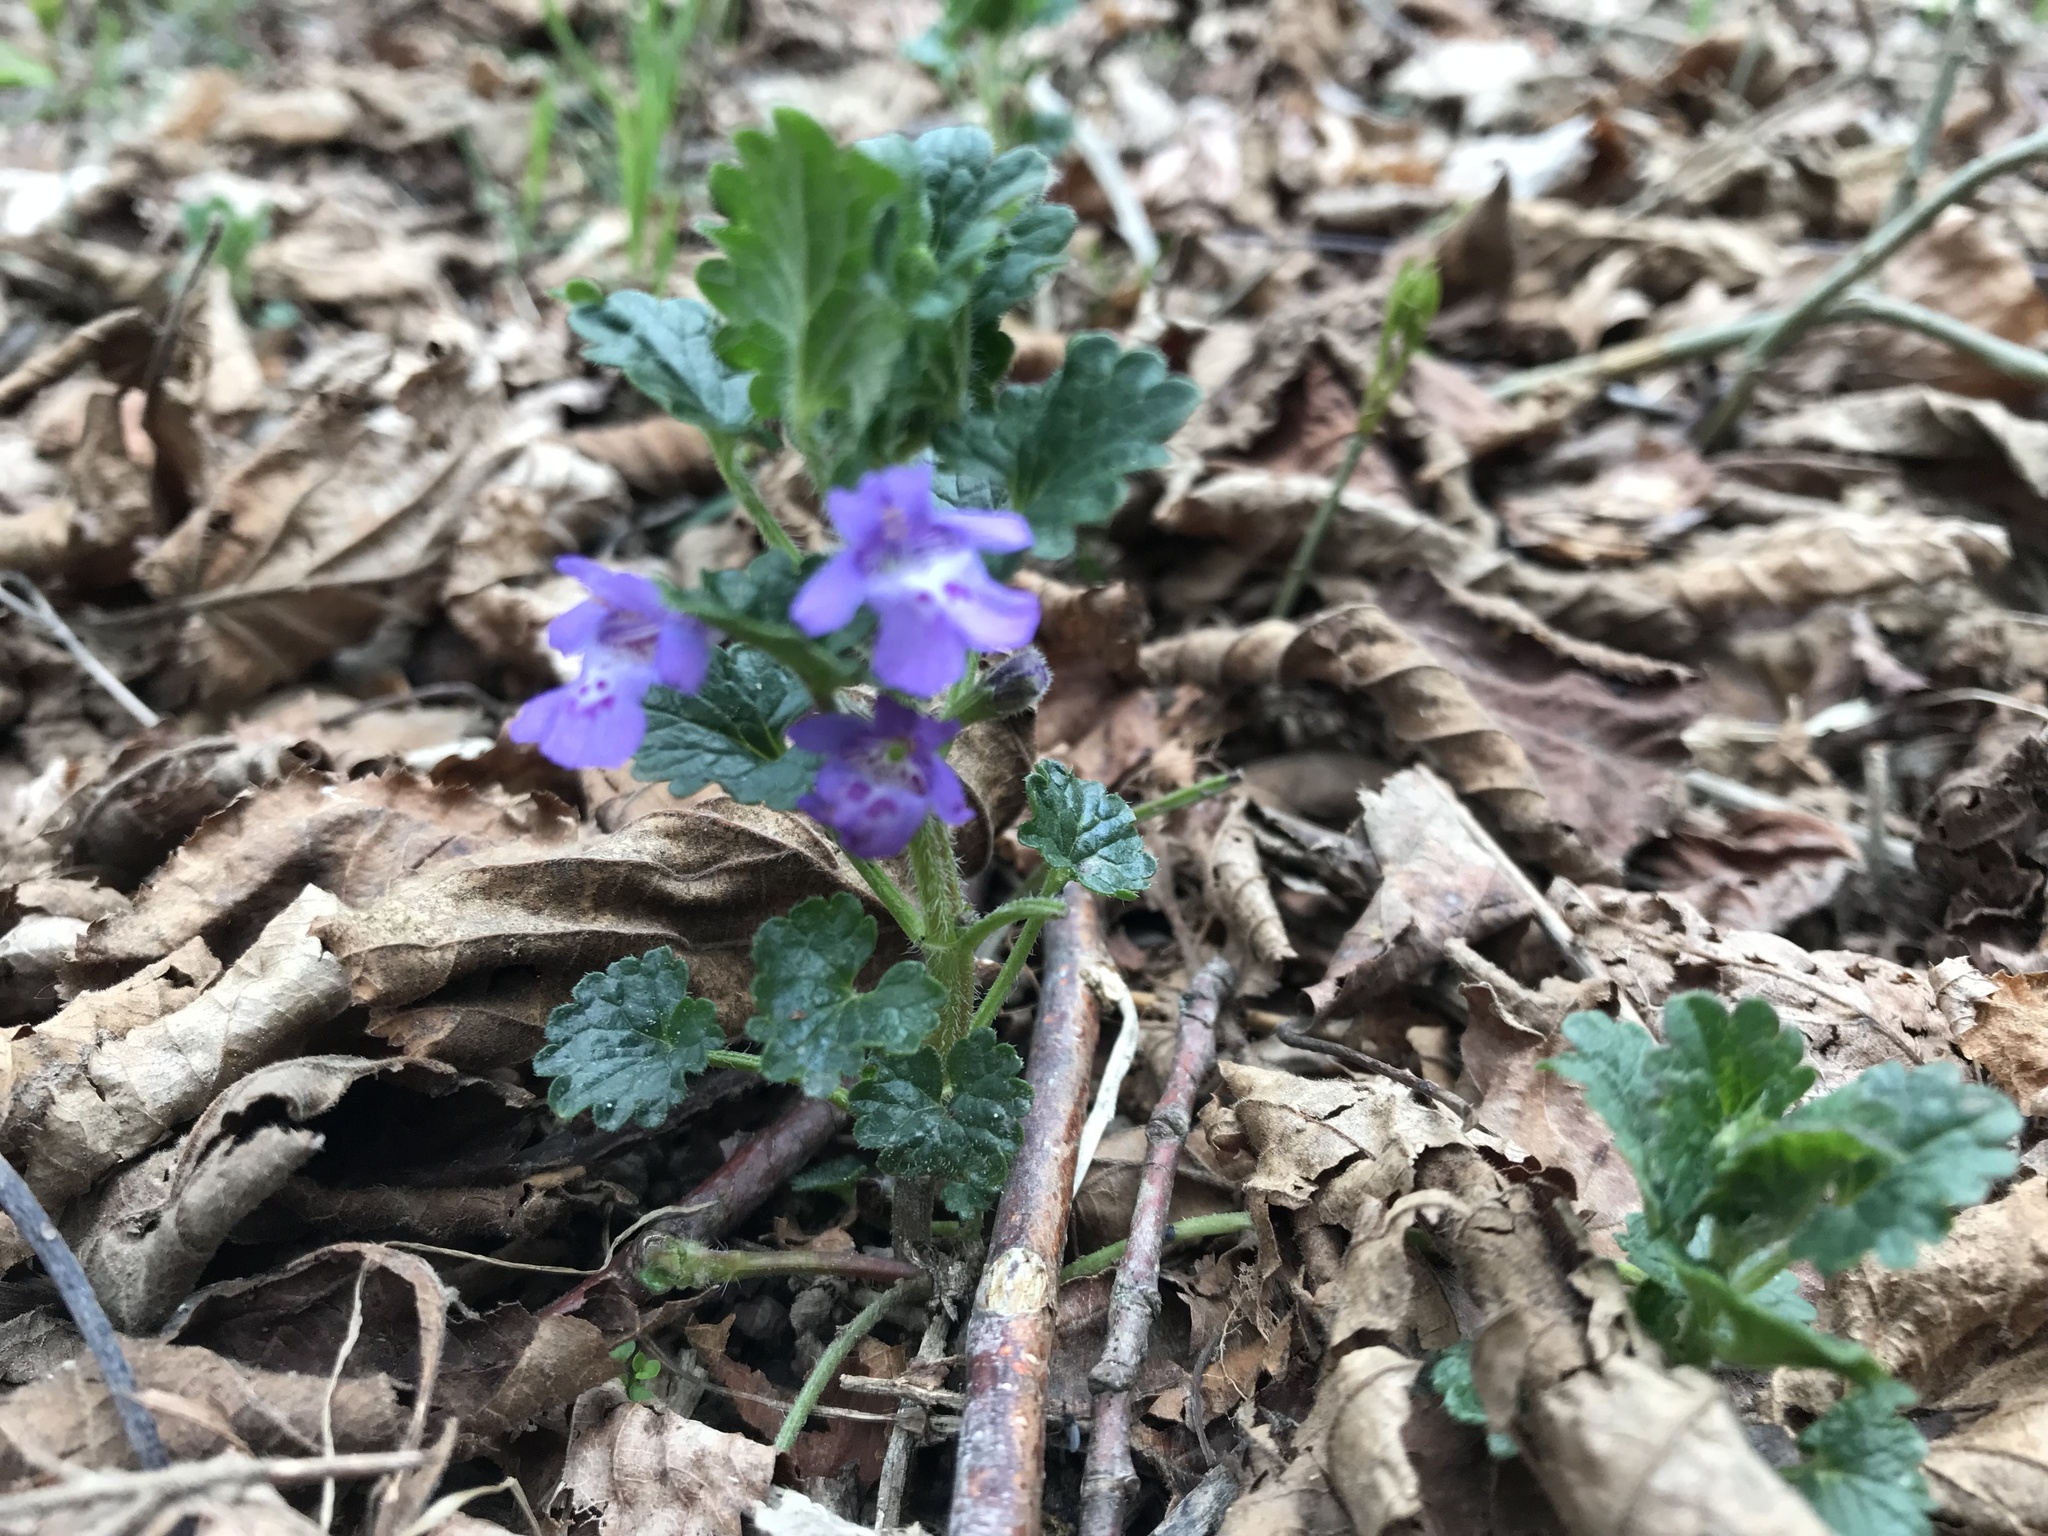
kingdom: Plantae
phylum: Tracheophyta
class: Magnoliopsida
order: Lamiales
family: Lamiaceae
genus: Glechoma
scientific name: Glechoma hederacea
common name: Ground ivy
